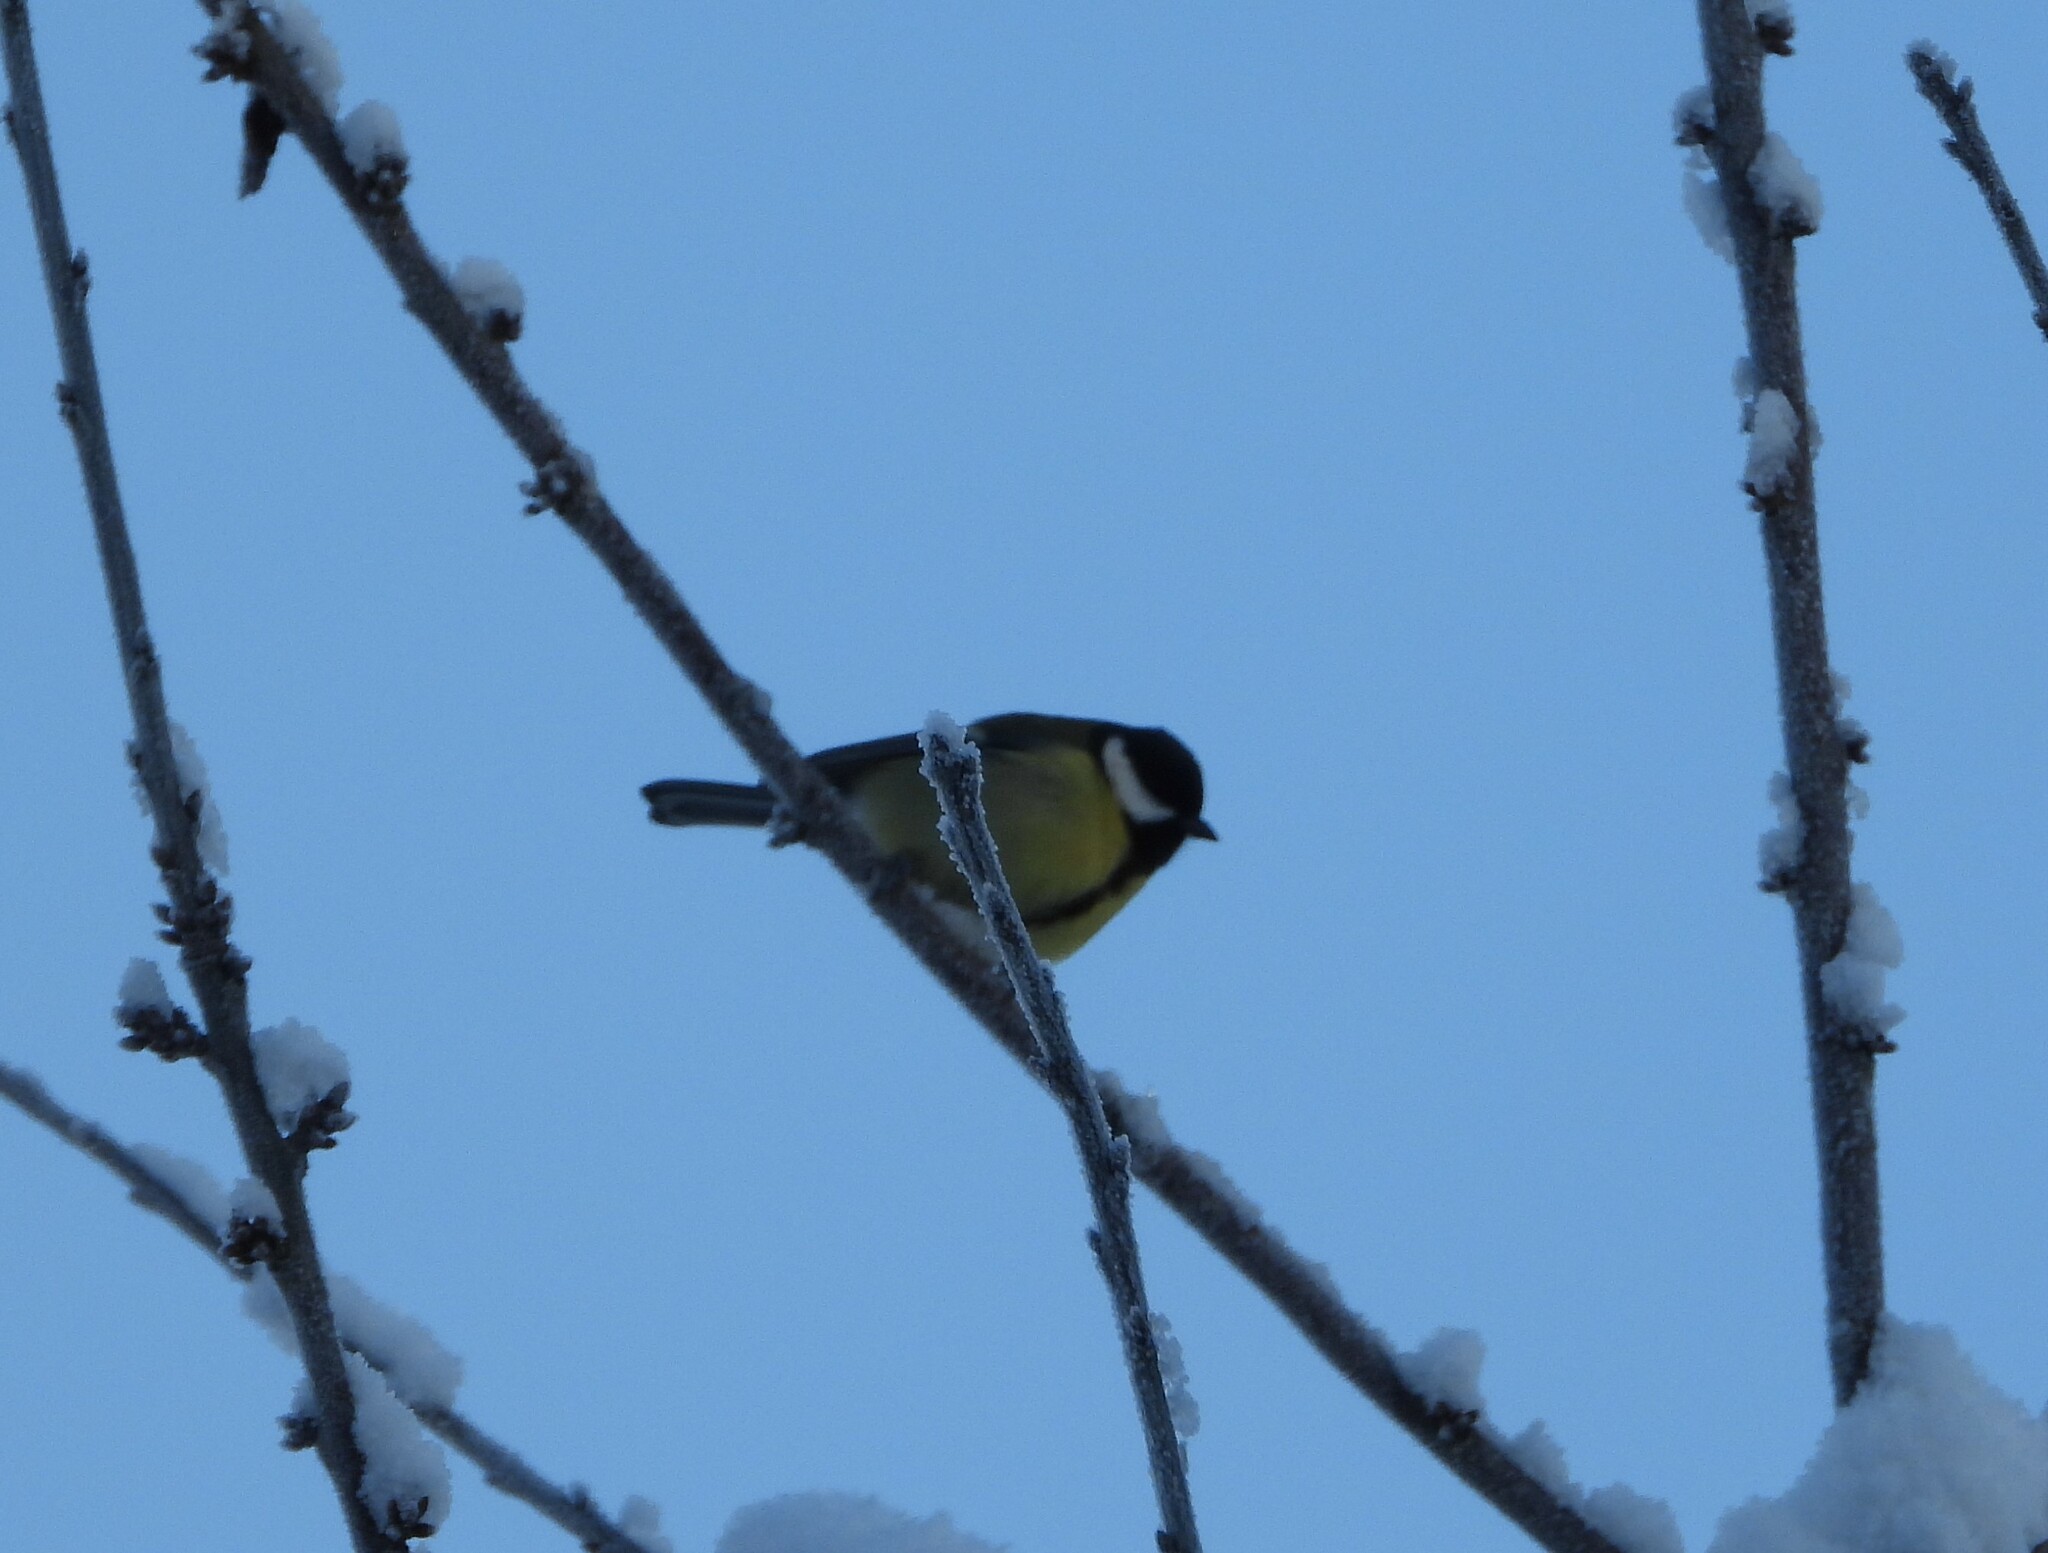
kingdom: Animalia
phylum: Chordata
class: Aves
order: Passeriformes
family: Paridae
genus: Parus
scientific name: Parus major
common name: Great tit
